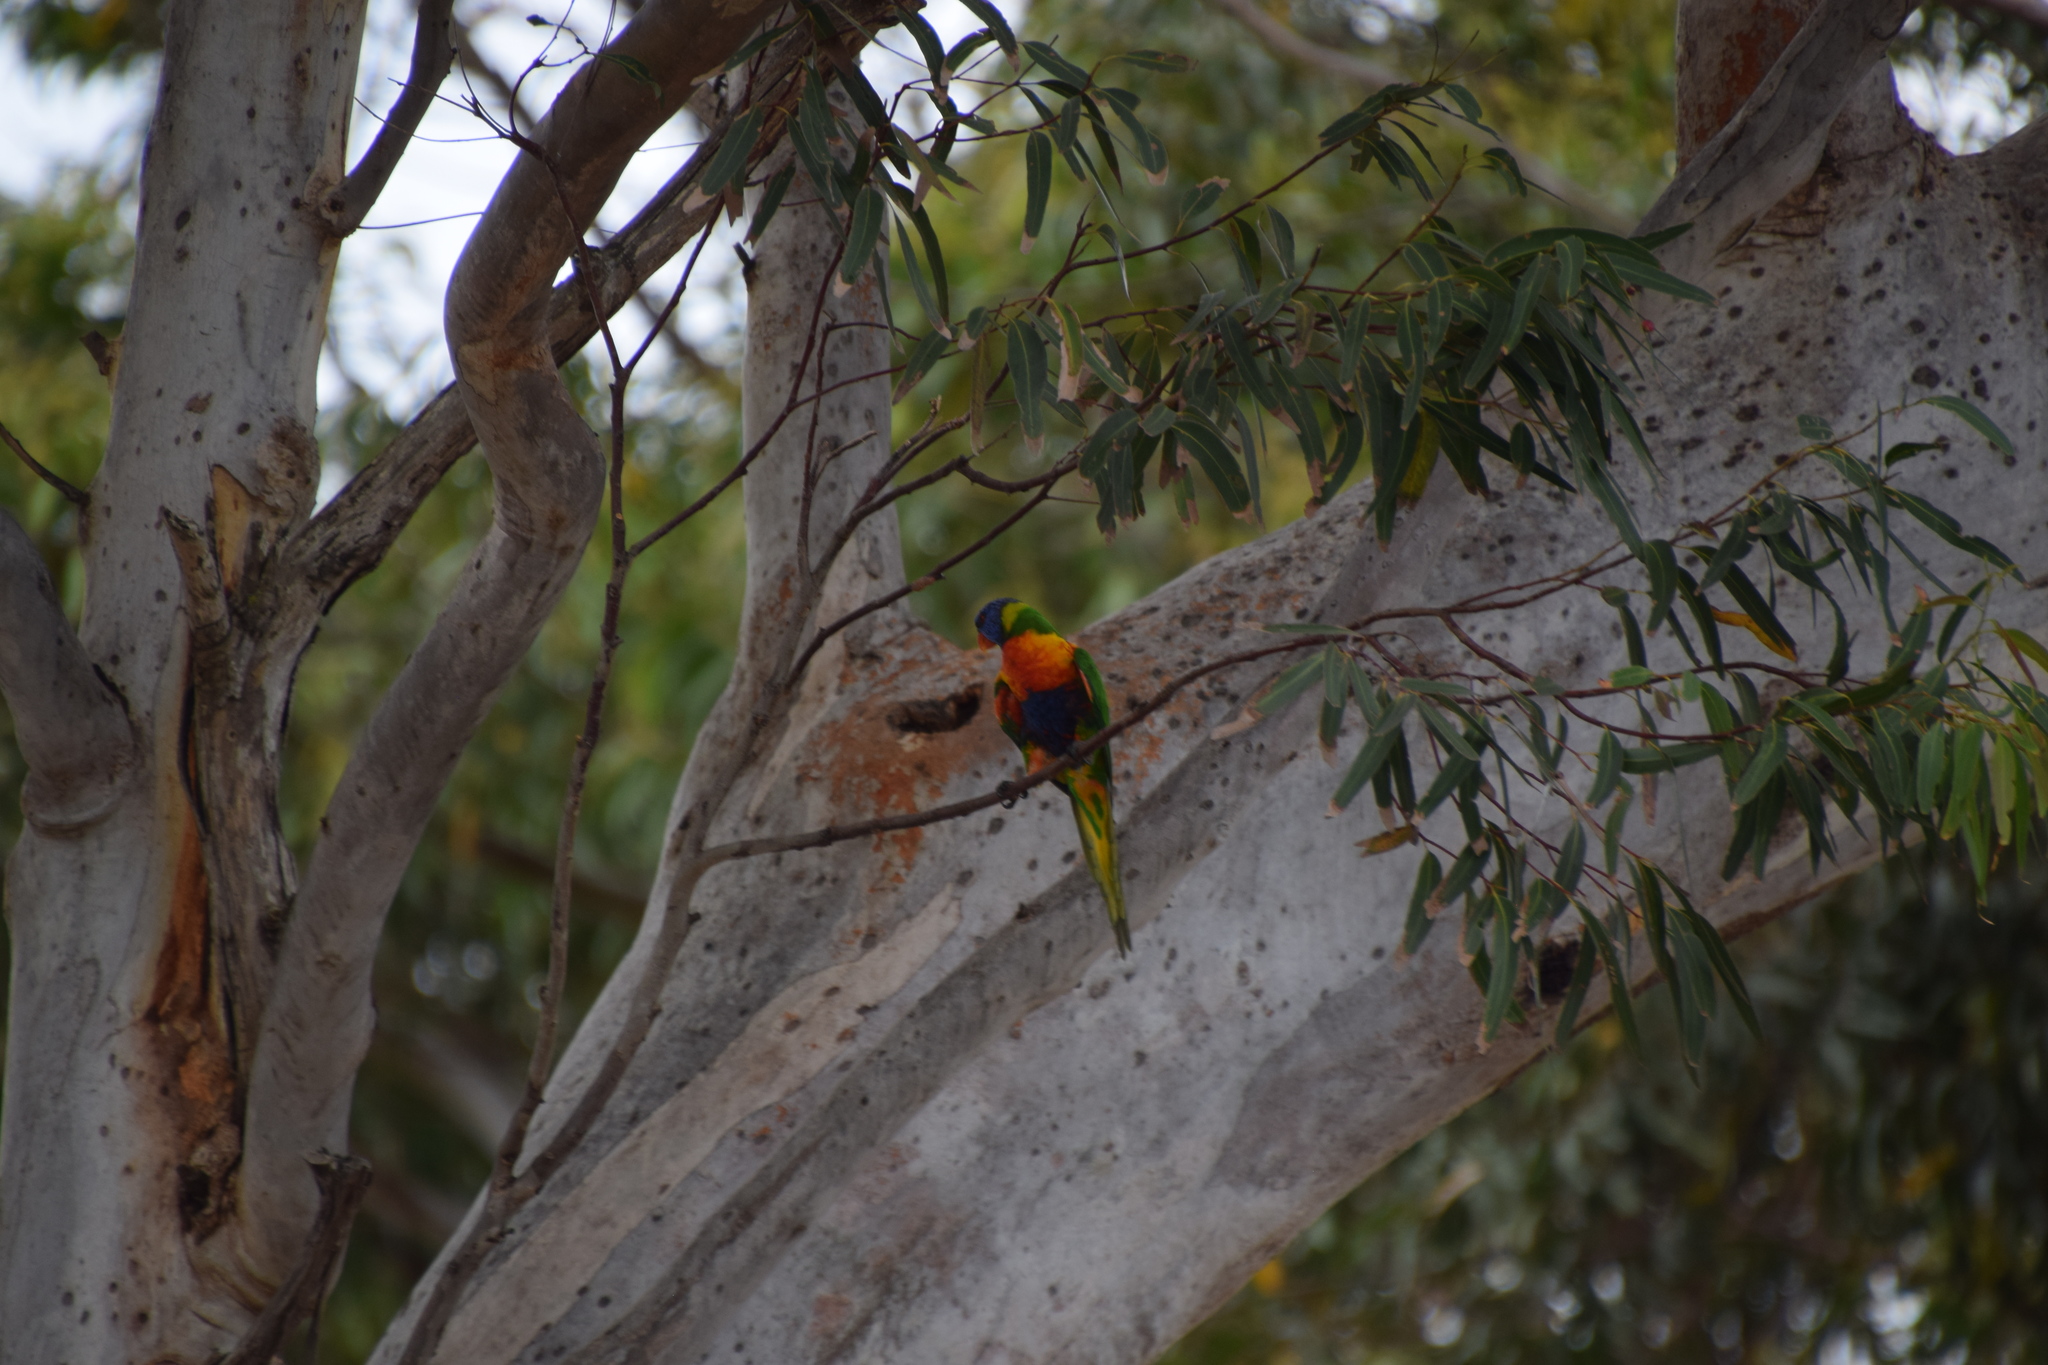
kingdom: Animalia
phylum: Chordata
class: Aves
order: Psittaciformes
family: Psittacidae
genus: Trichoglossus
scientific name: Trichoglossus haematodus
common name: Coconut lorikeet
